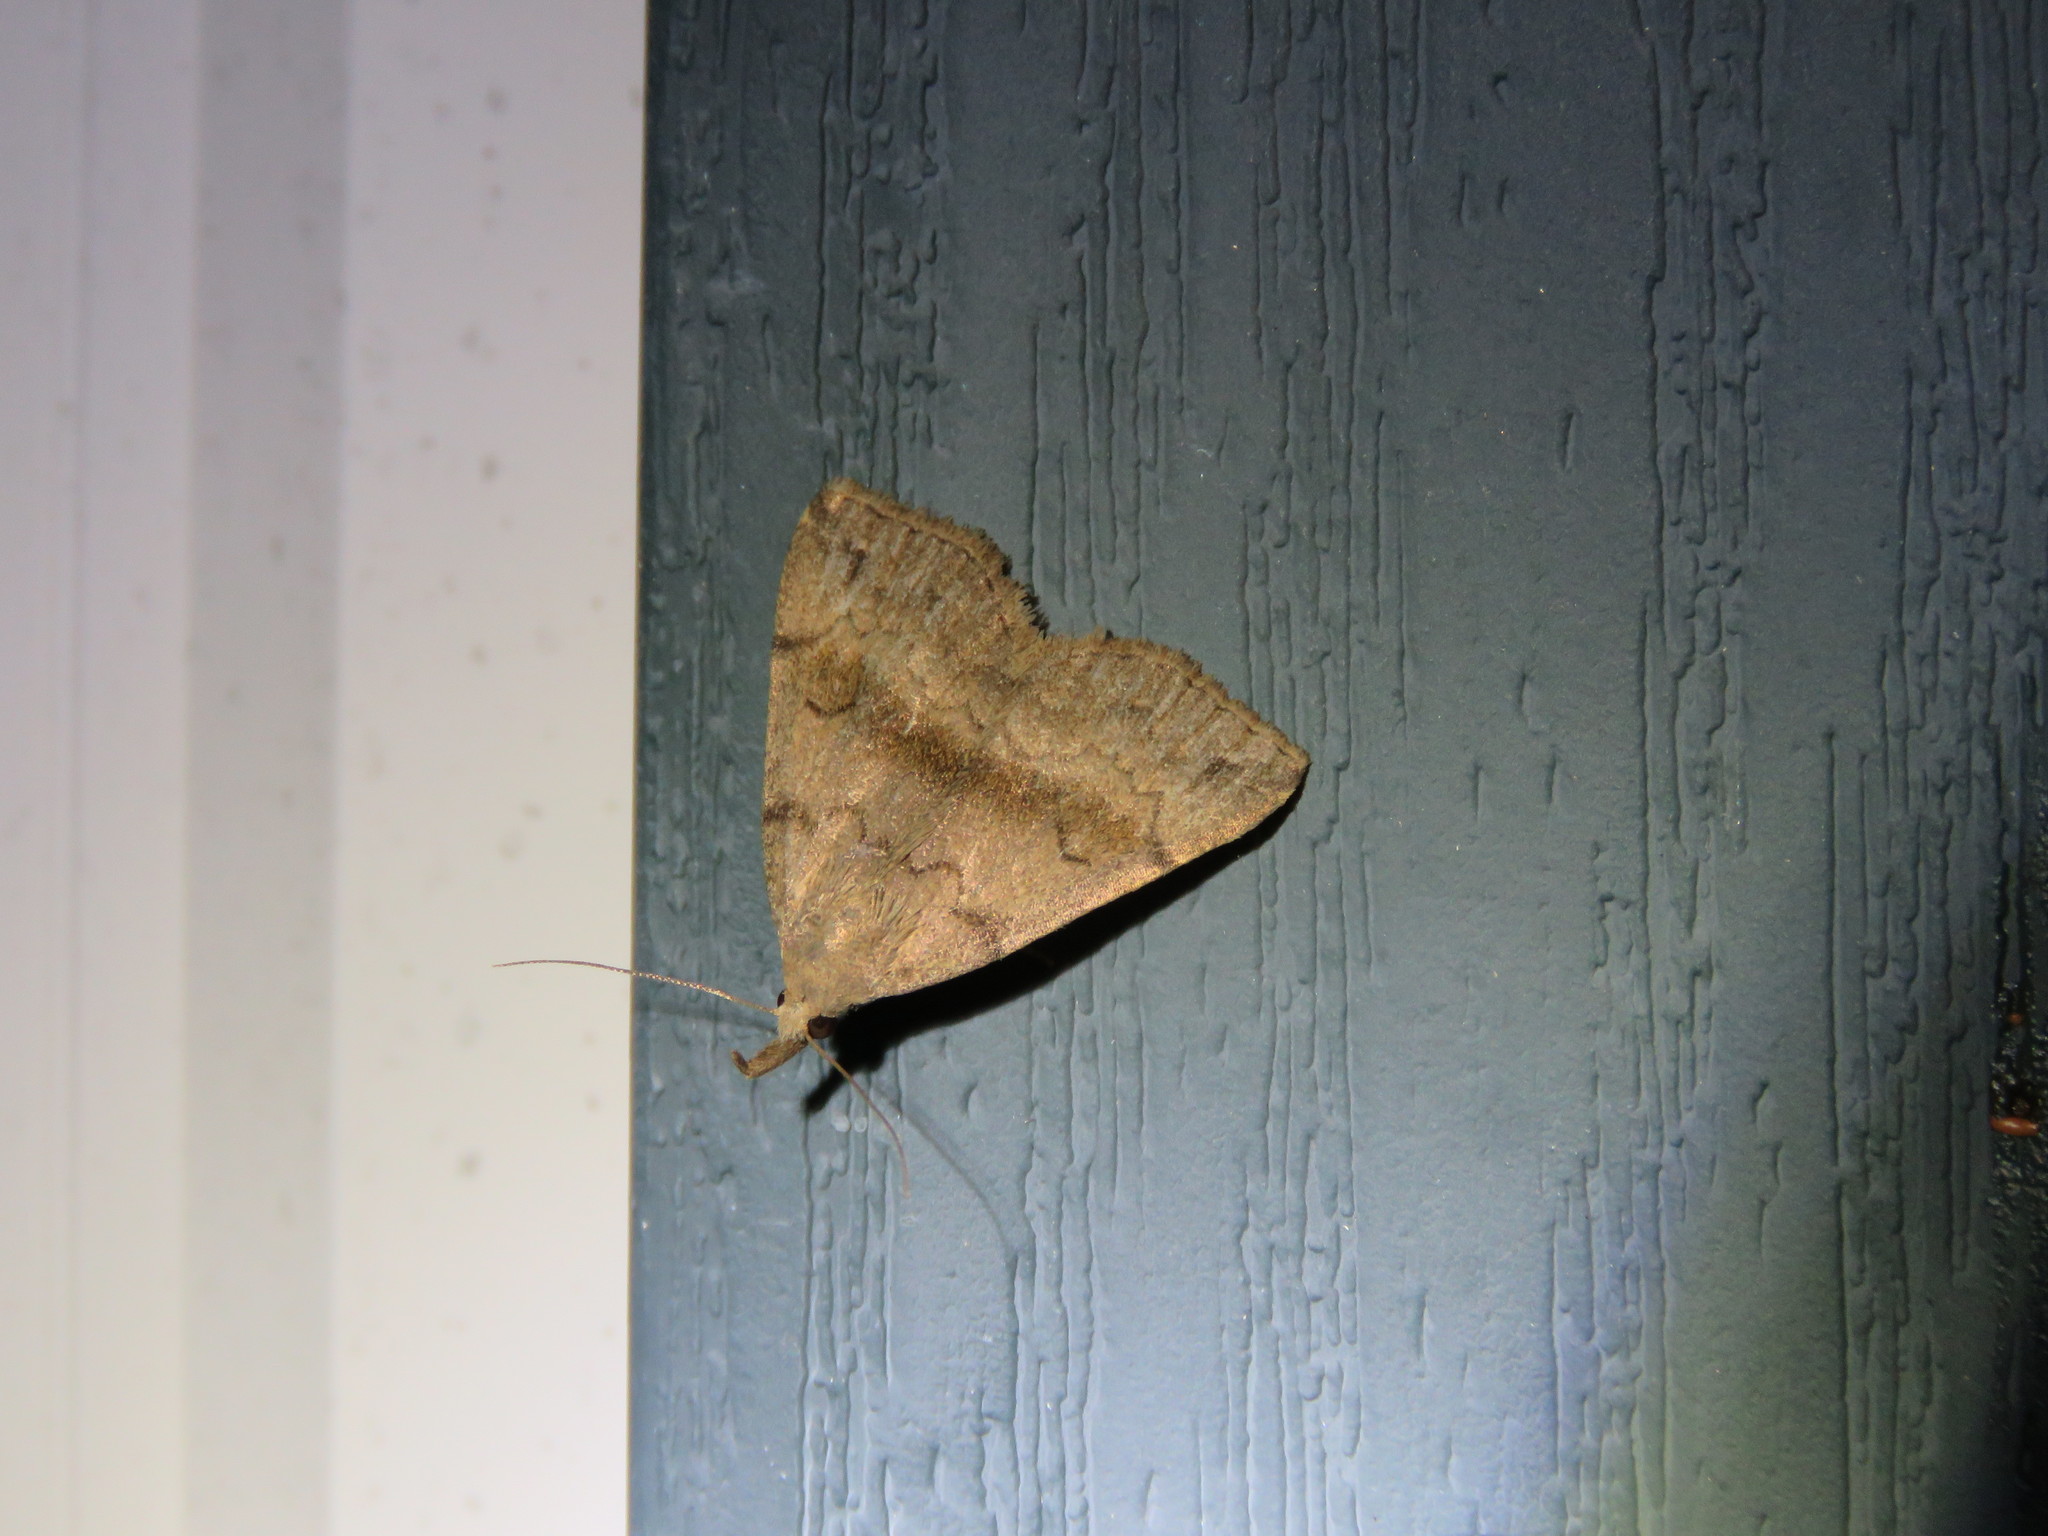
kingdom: Animalia
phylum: Arthropoda
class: Insecta
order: Lepidoptera
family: Erebidae
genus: Phalaenostola
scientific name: Phalaenostola eumelusalis
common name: Dark phalaenostola moth
